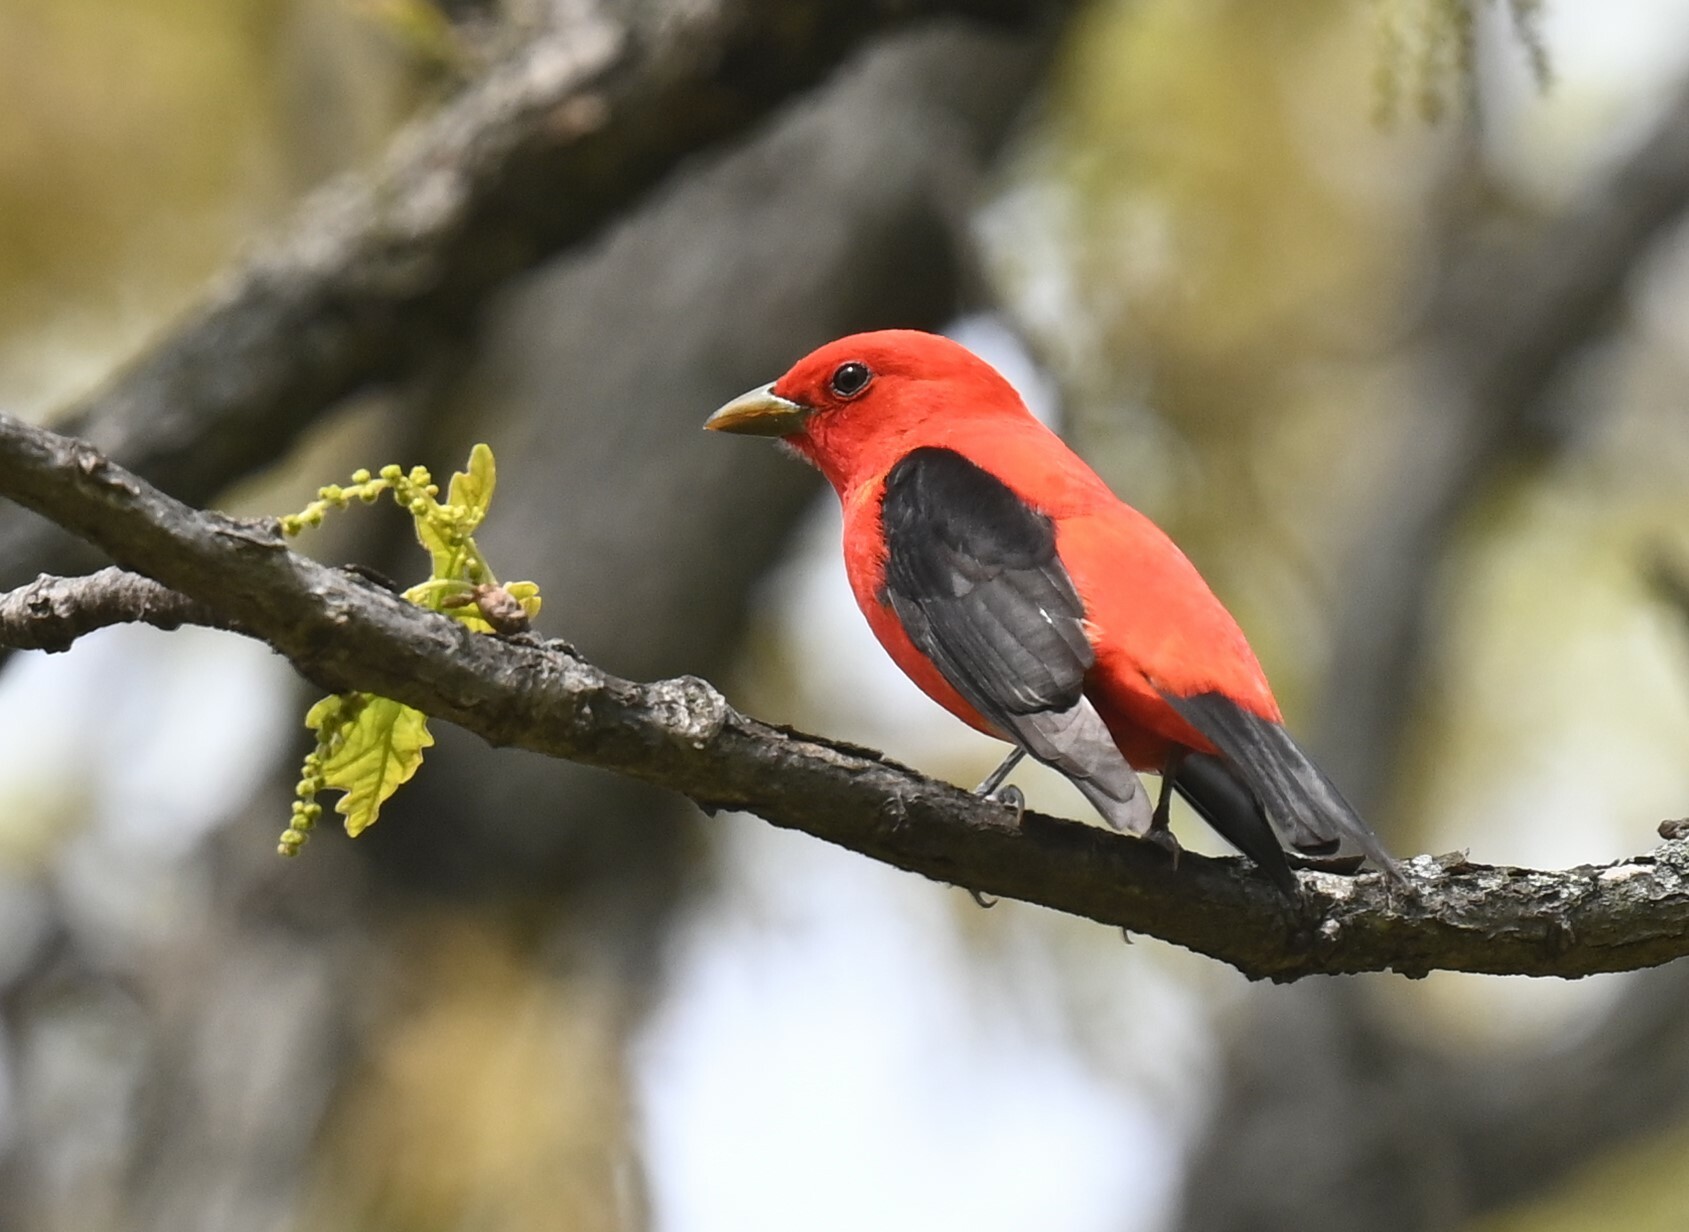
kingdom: Animalia
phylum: Chordata
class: Aves
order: Passeriformes
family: Cardinalidae
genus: Piranga
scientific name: Piranga olivacea
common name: Scarlet tanager
